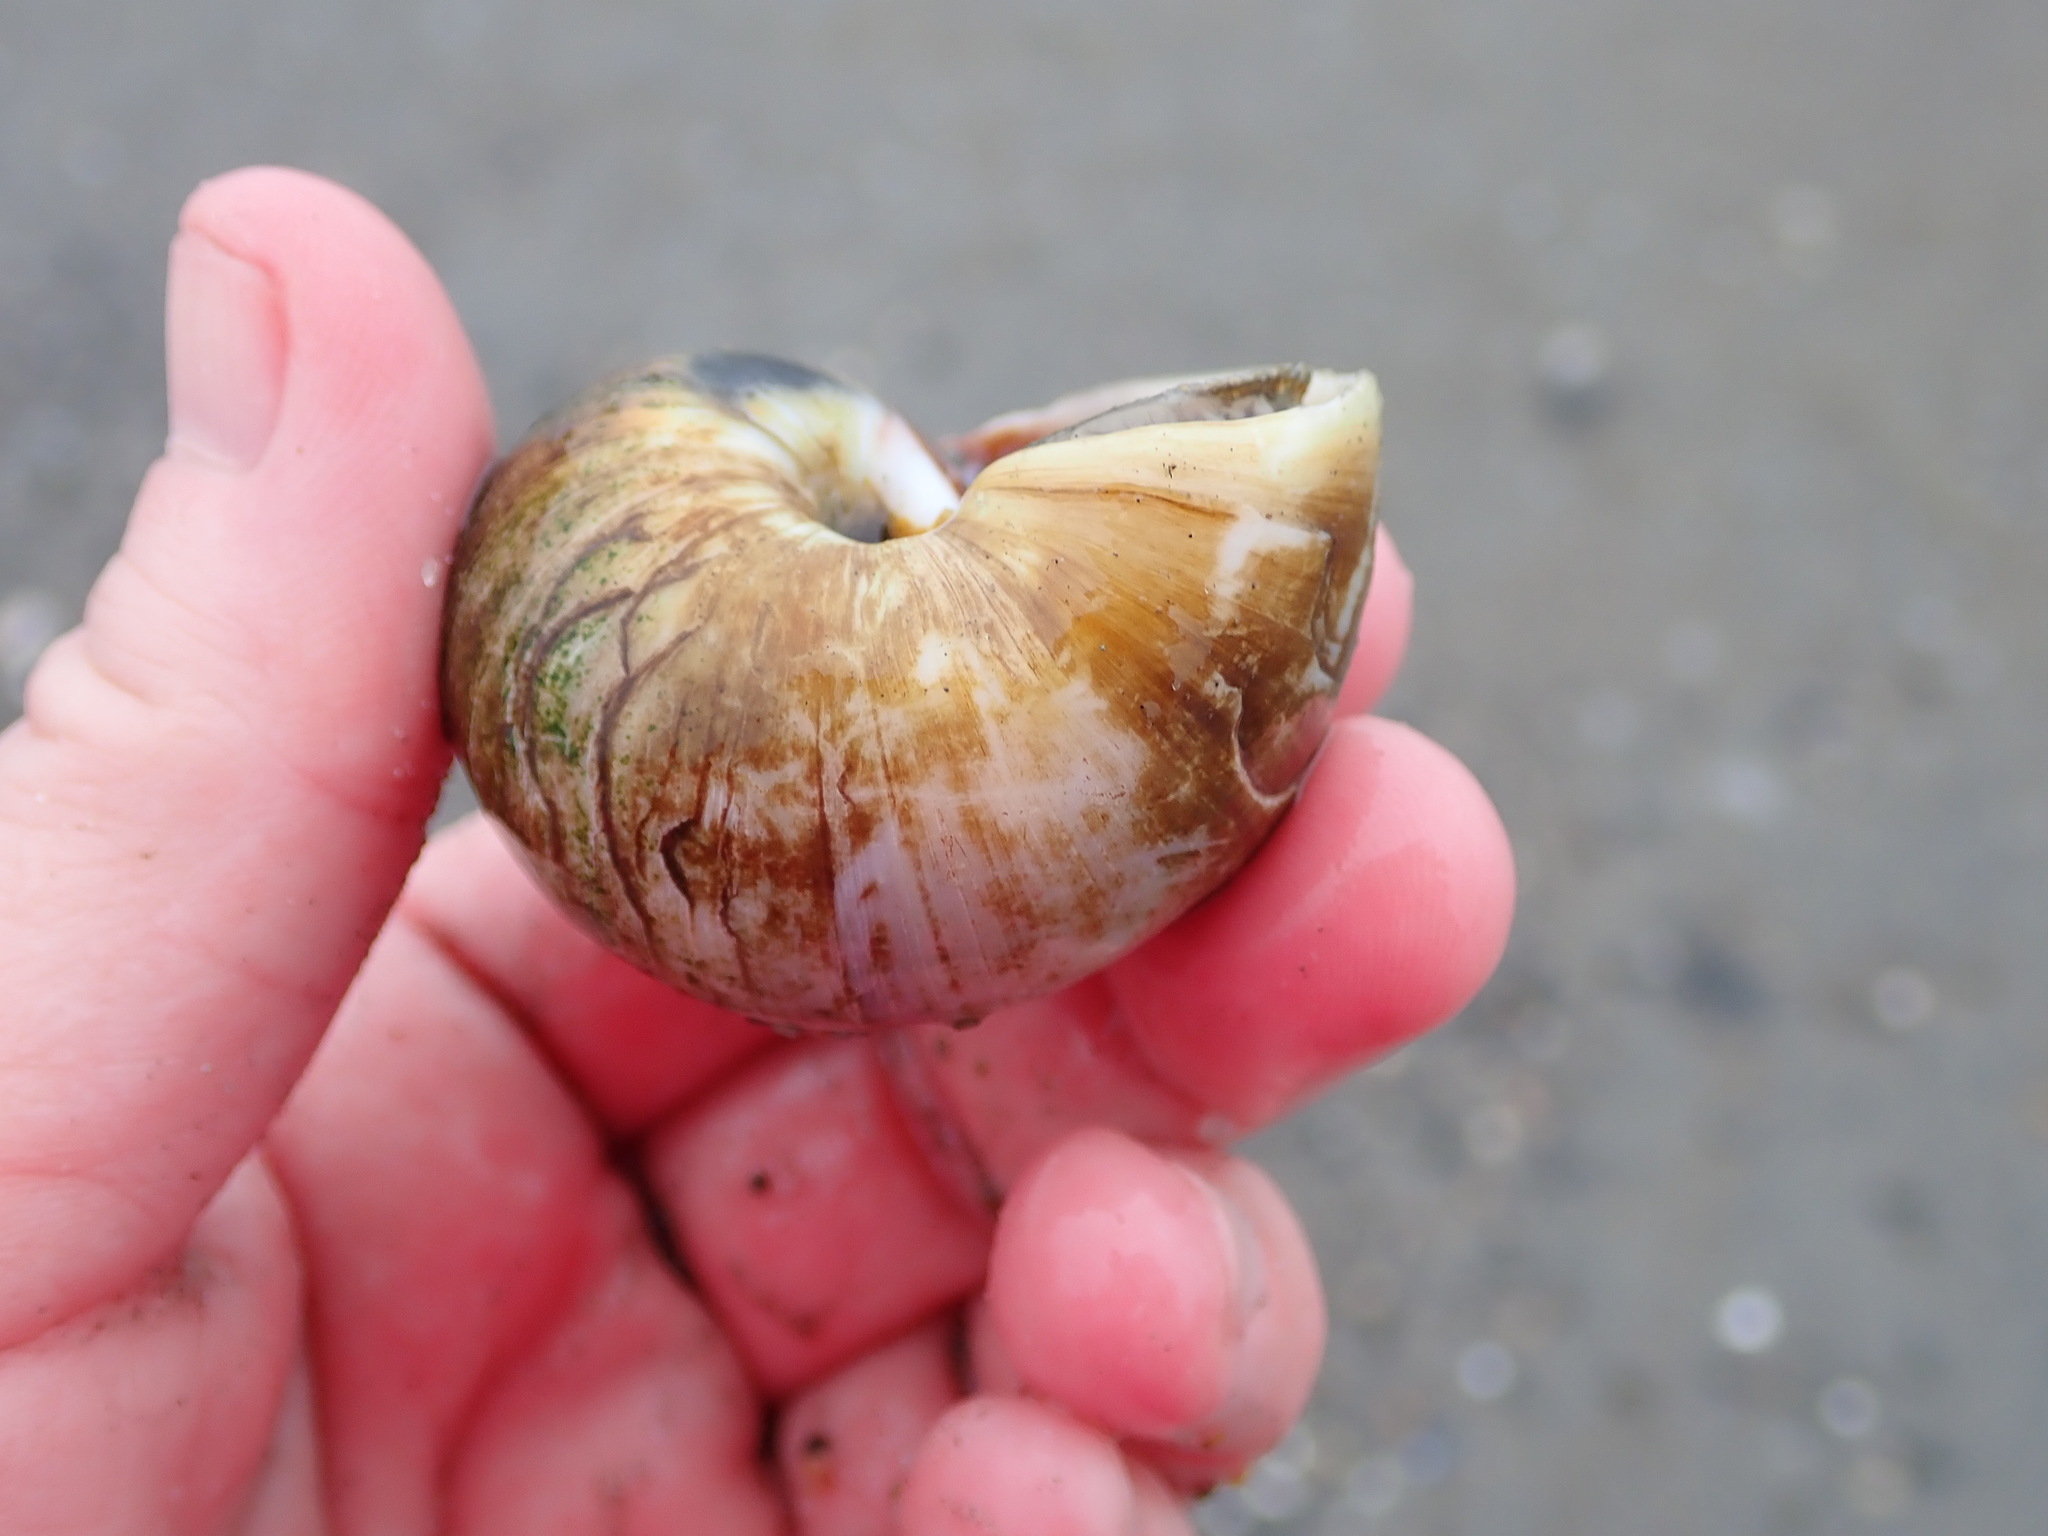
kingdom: Animalia
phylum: Mollusca
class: Gastropoda
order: Littorinimorpha
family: Naticidae
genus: Euspira
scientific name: Euspira heros
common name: Common northern moonsnail
